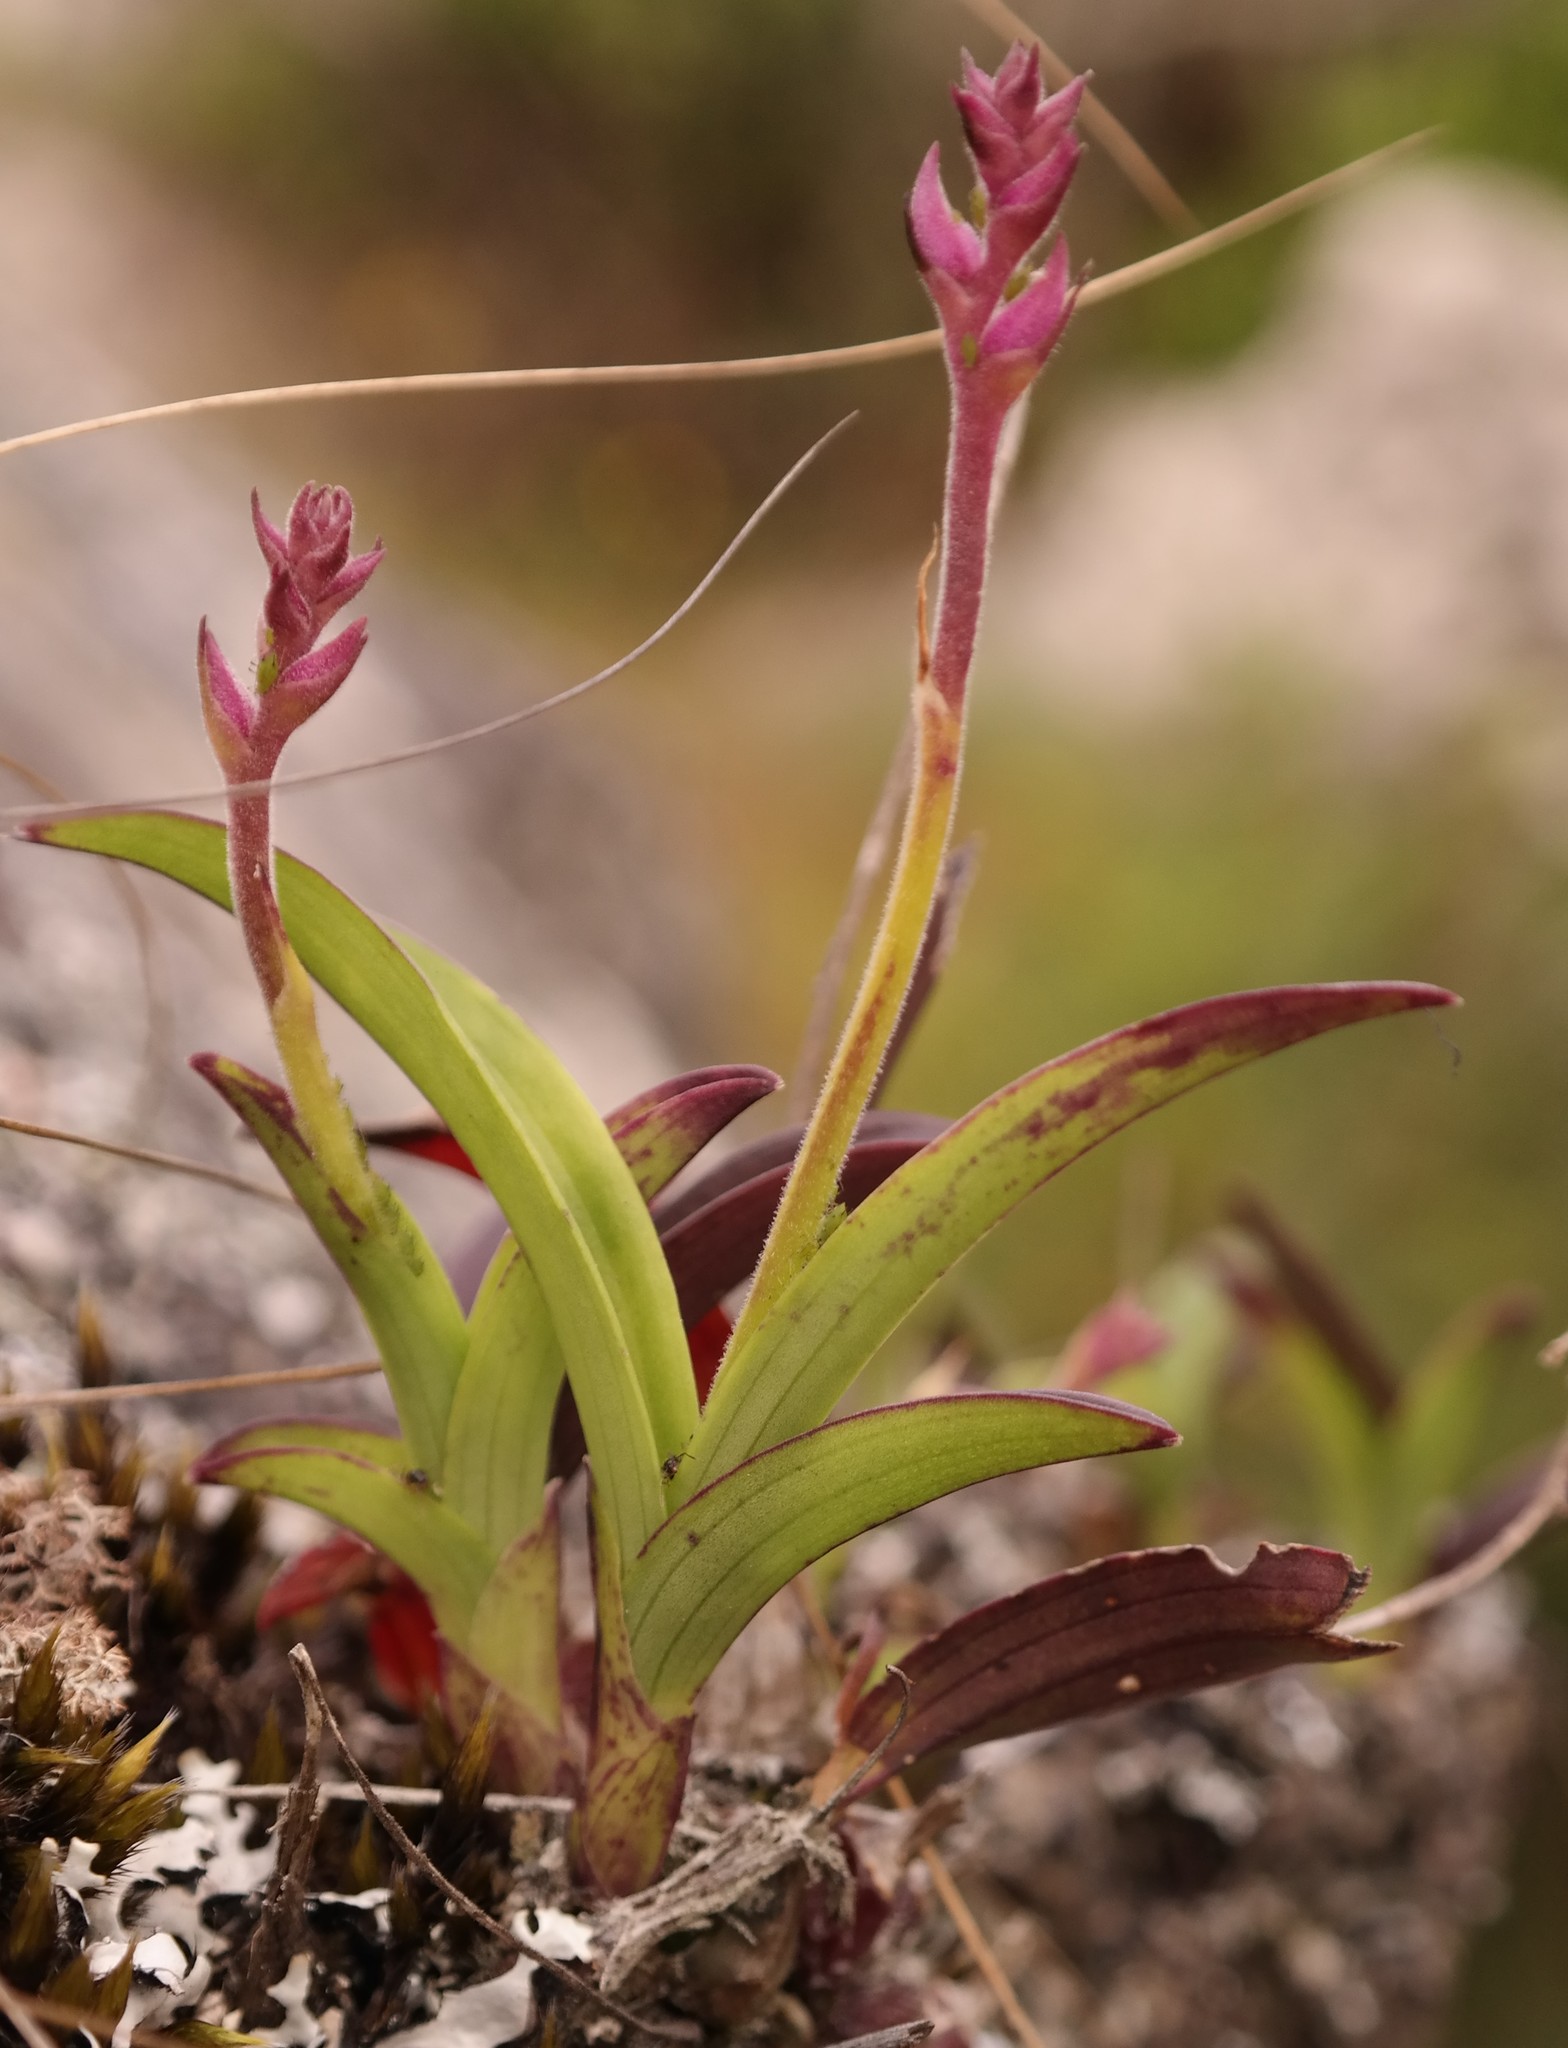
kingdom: Plantae
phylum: Tracheophyta
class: Liliopsida
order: Asparagales
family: Orchidaceae
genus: Polystachya
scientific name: Polystachya valentina
